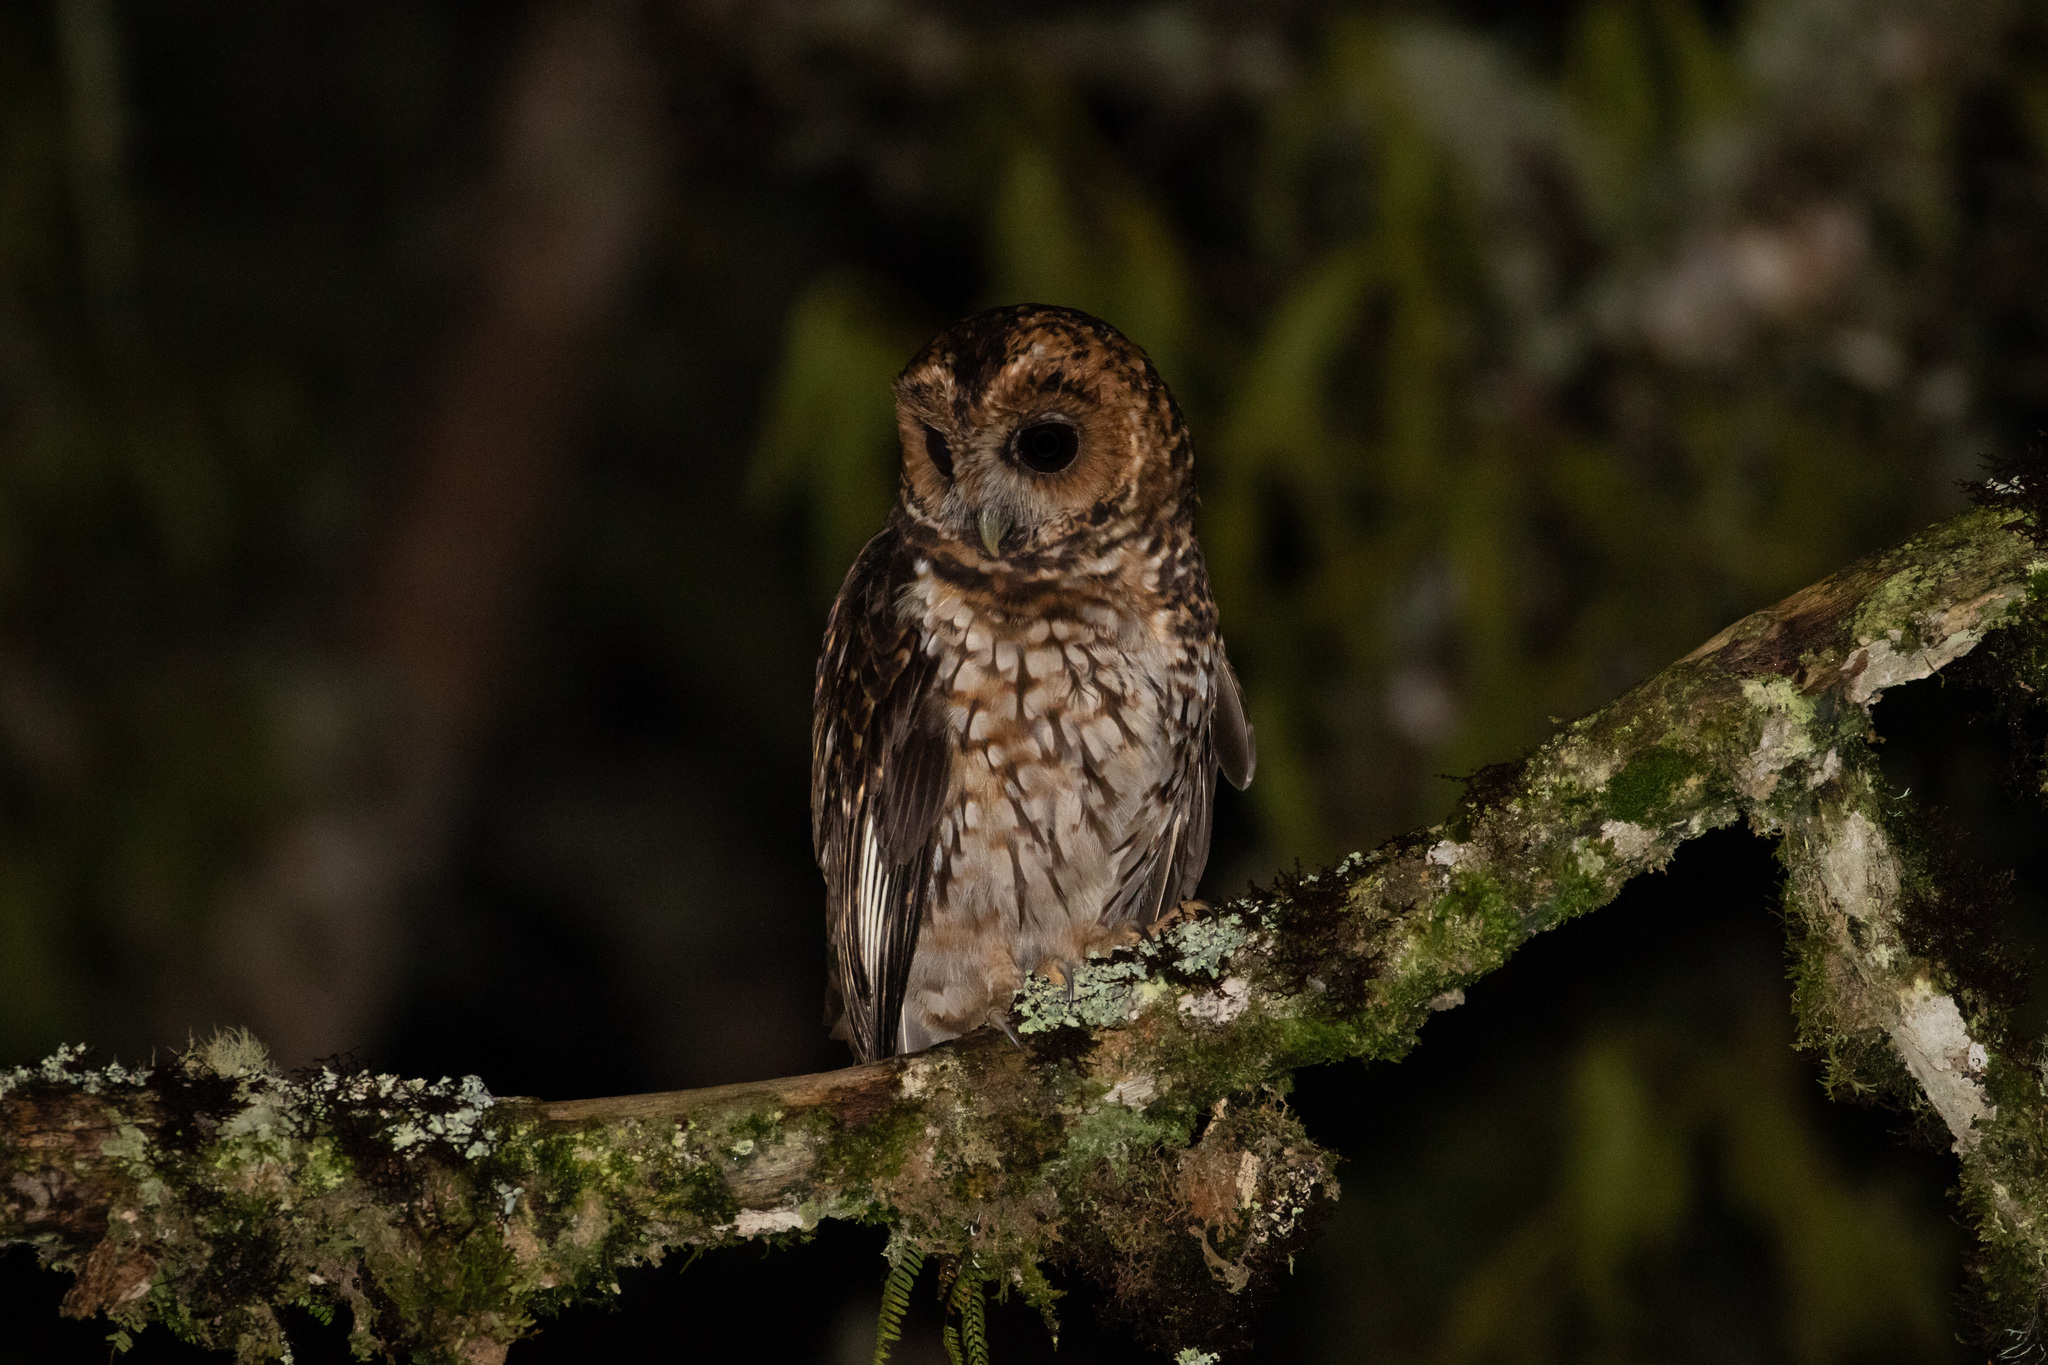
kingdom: Animalia
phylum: Chordata
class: Aves
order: Strigiformes
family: Strigidae
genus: Strix
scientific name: Strix albitarsis
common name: Rufous-banded owl
